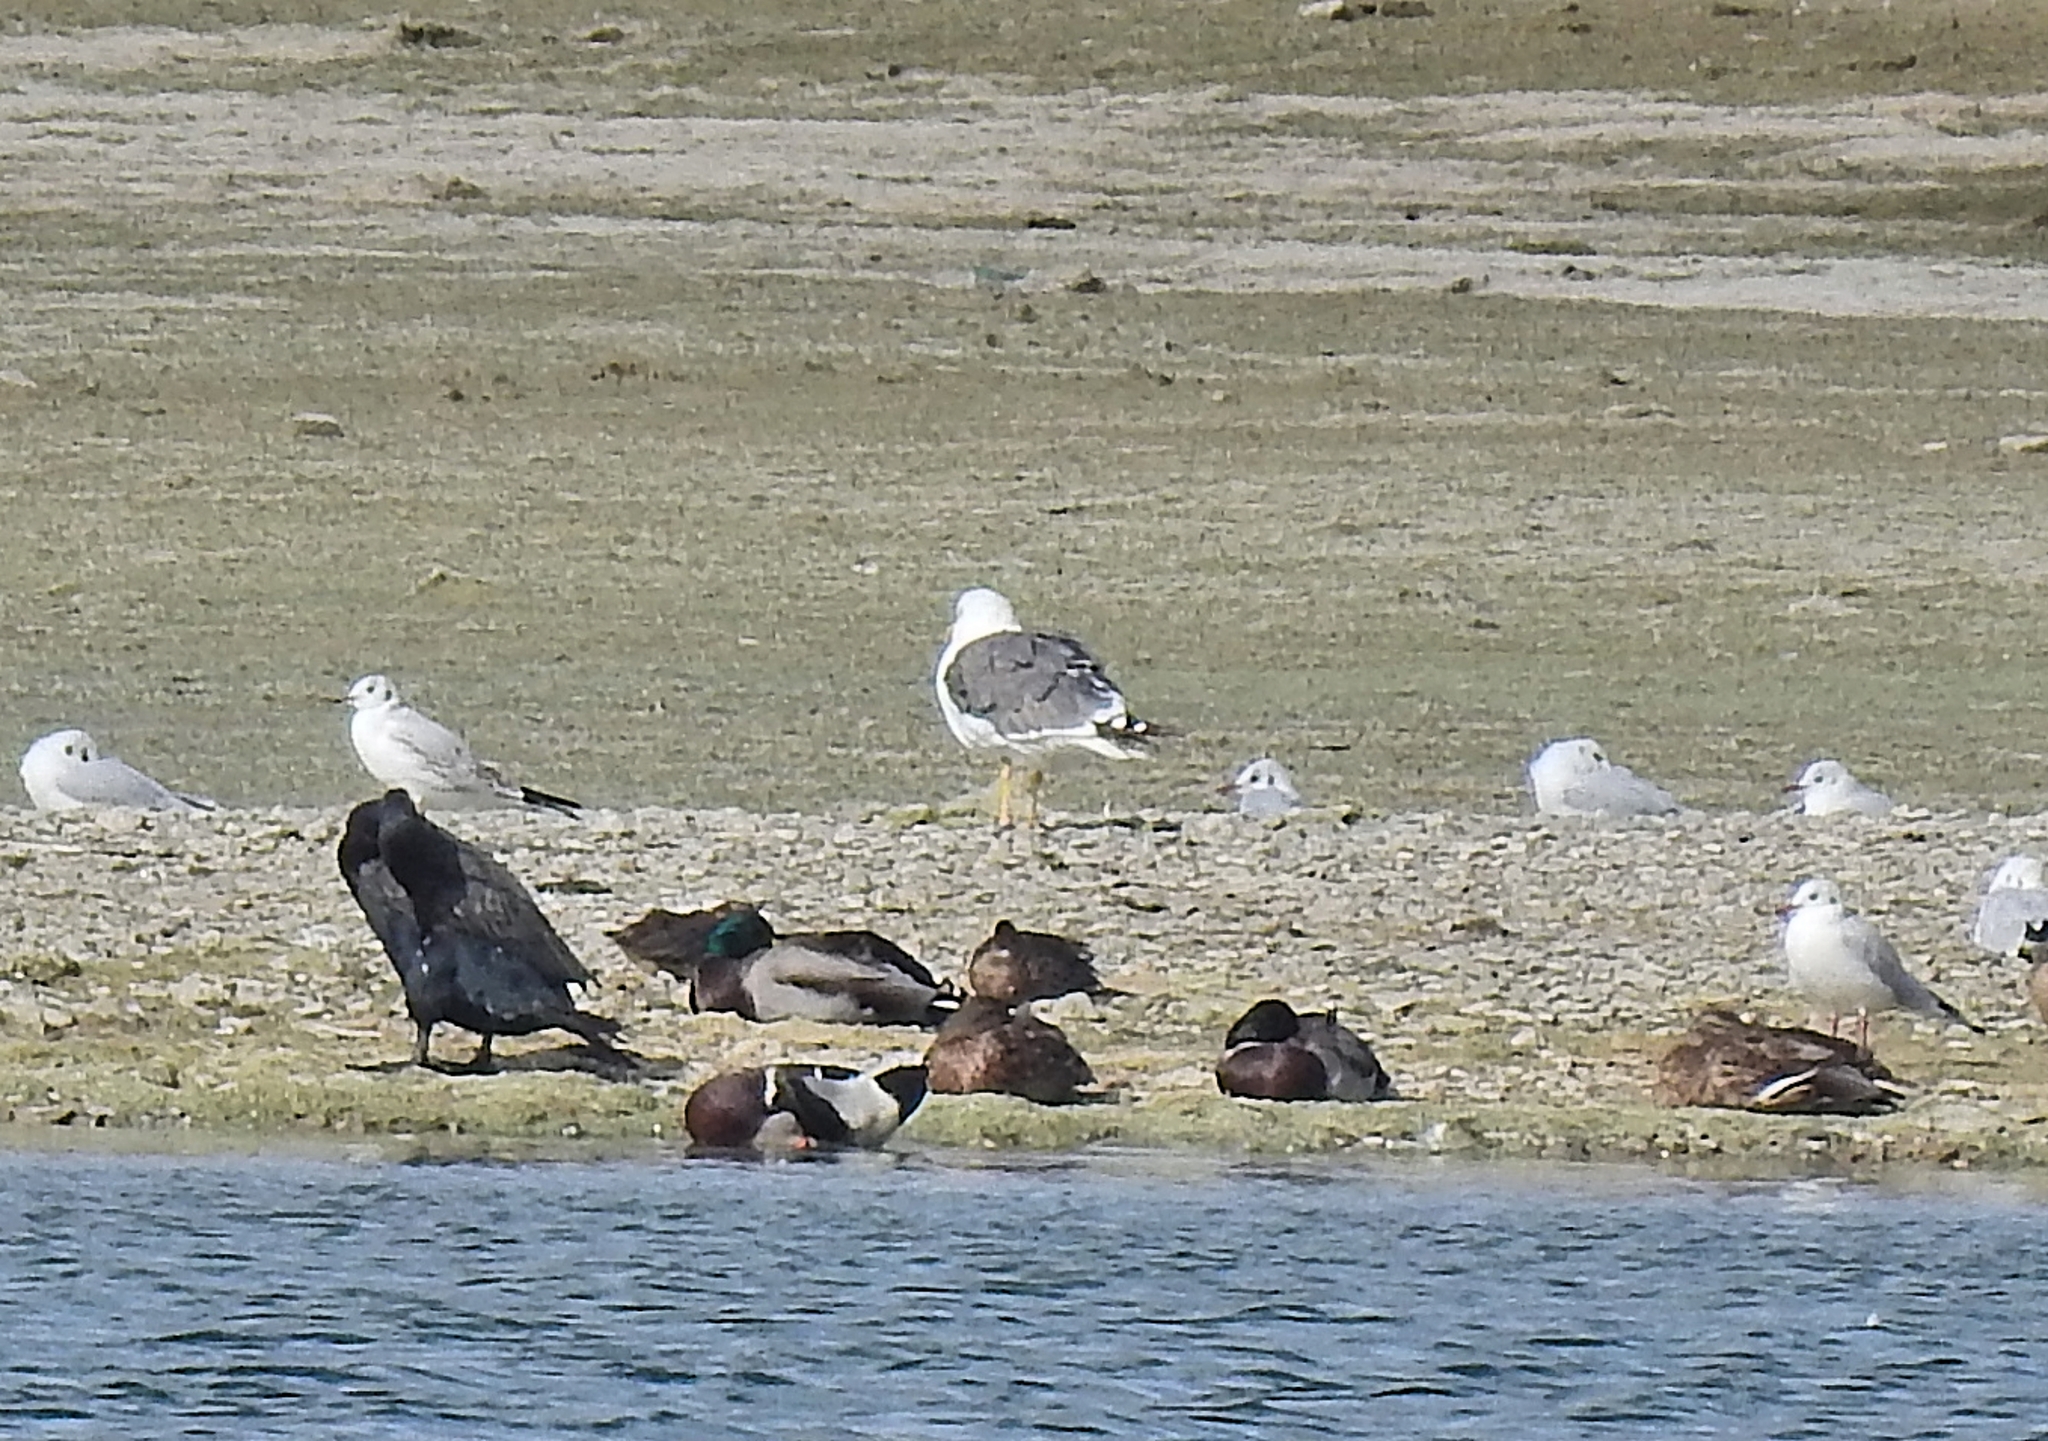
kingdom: Animalia
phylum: Chordata
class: Aves
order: Charadriiformes
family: Laridae
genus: Larus
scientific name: Larus fuscus
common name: Lesser black-backed gull
